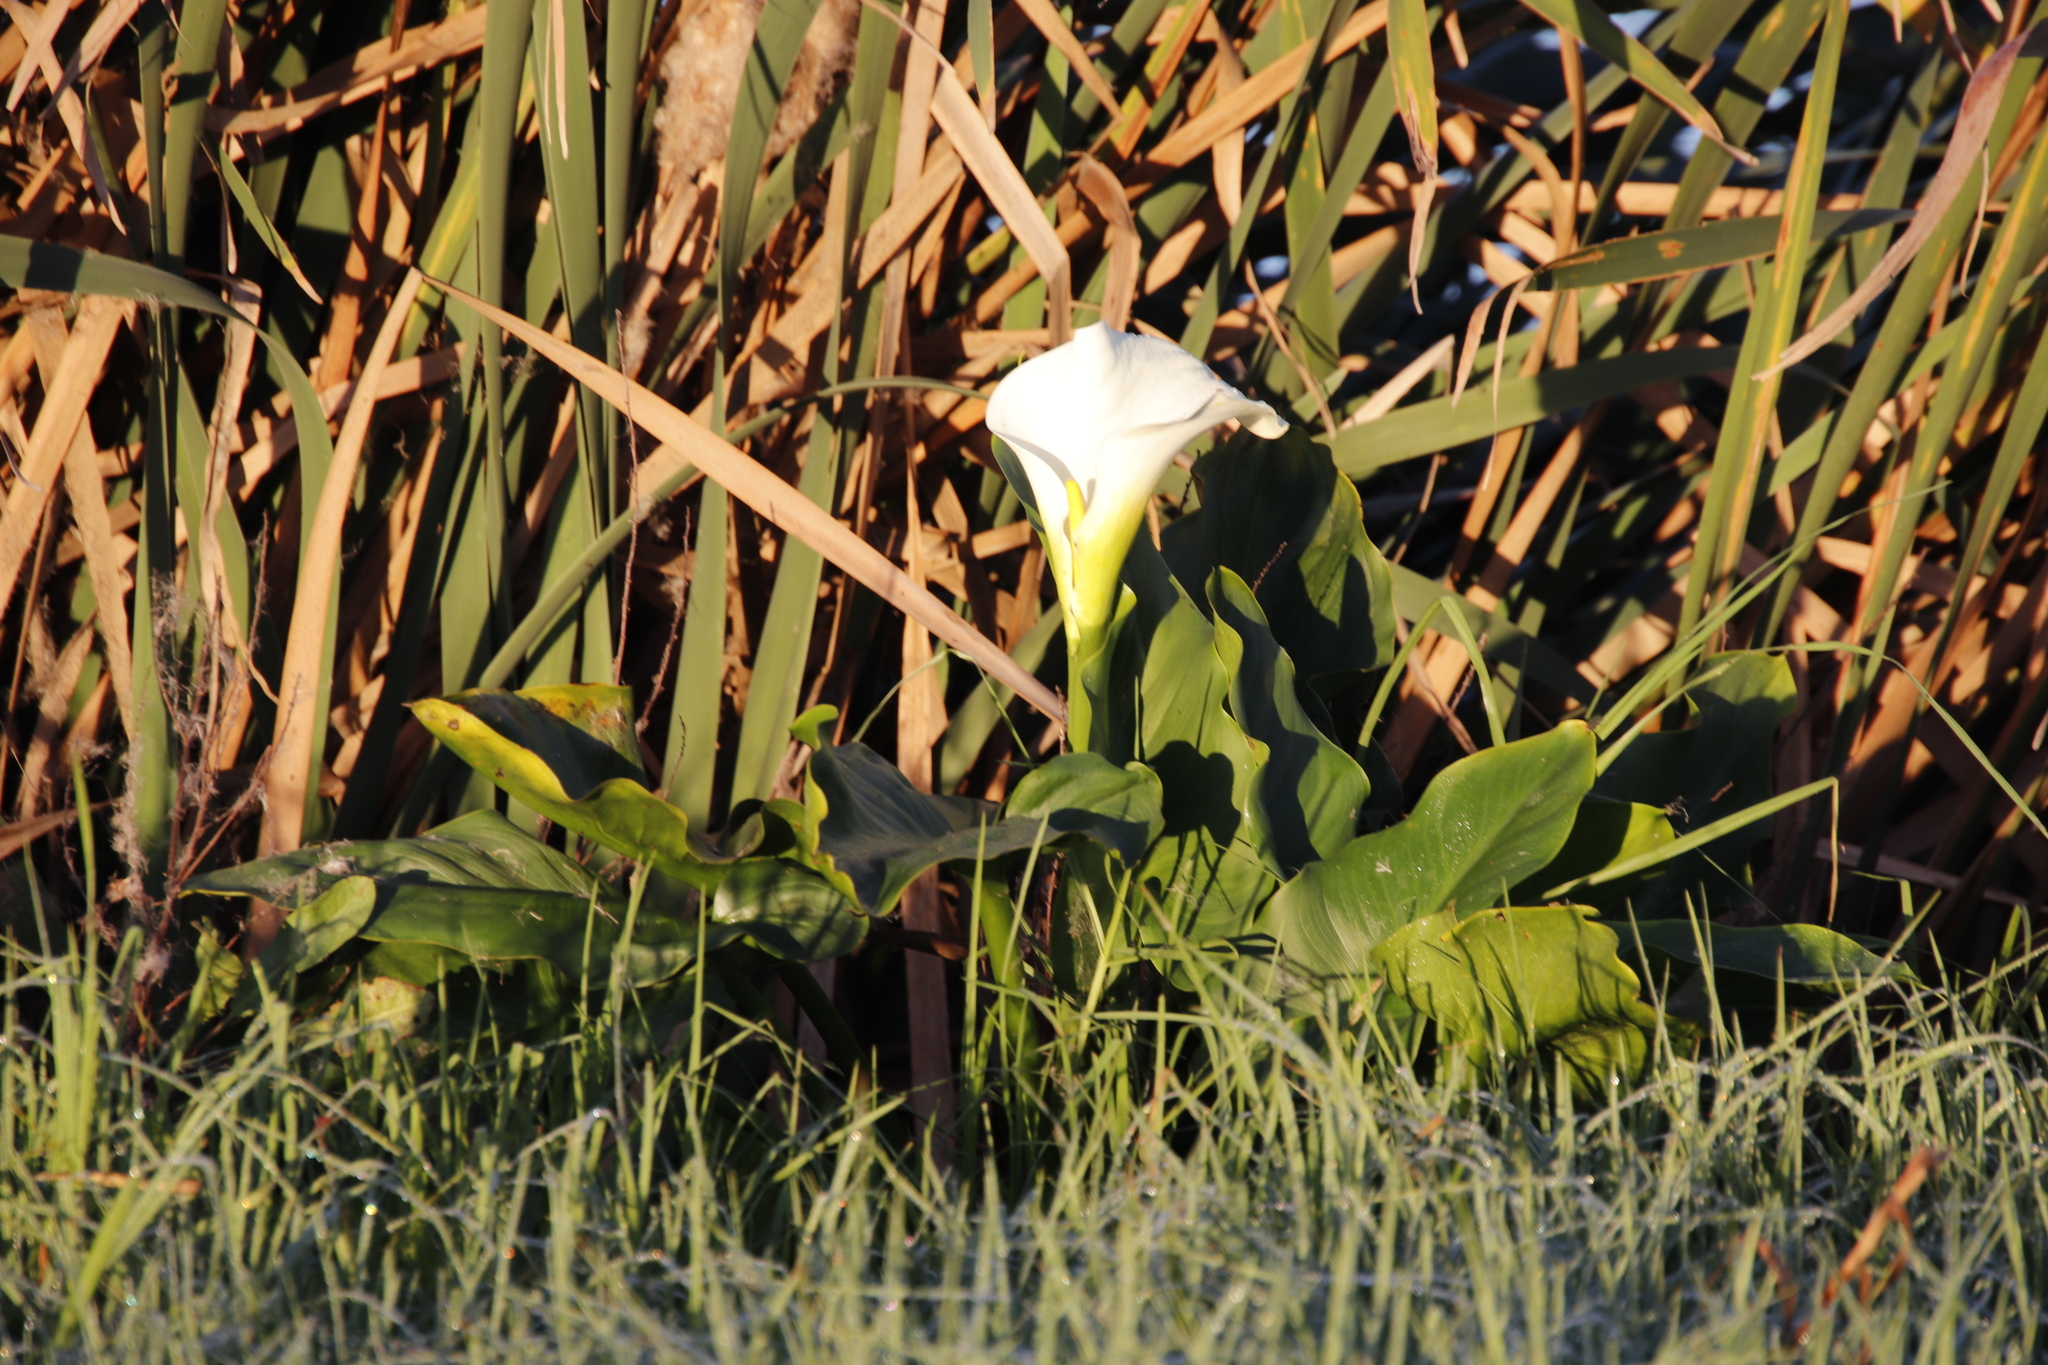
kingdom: Plantae
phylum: Tracheophyta
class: Liliopsida
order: Alismatales
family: Araceae
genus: Zantedeschia
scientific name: Zantedeschia aethiopica
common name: Altar-lily
